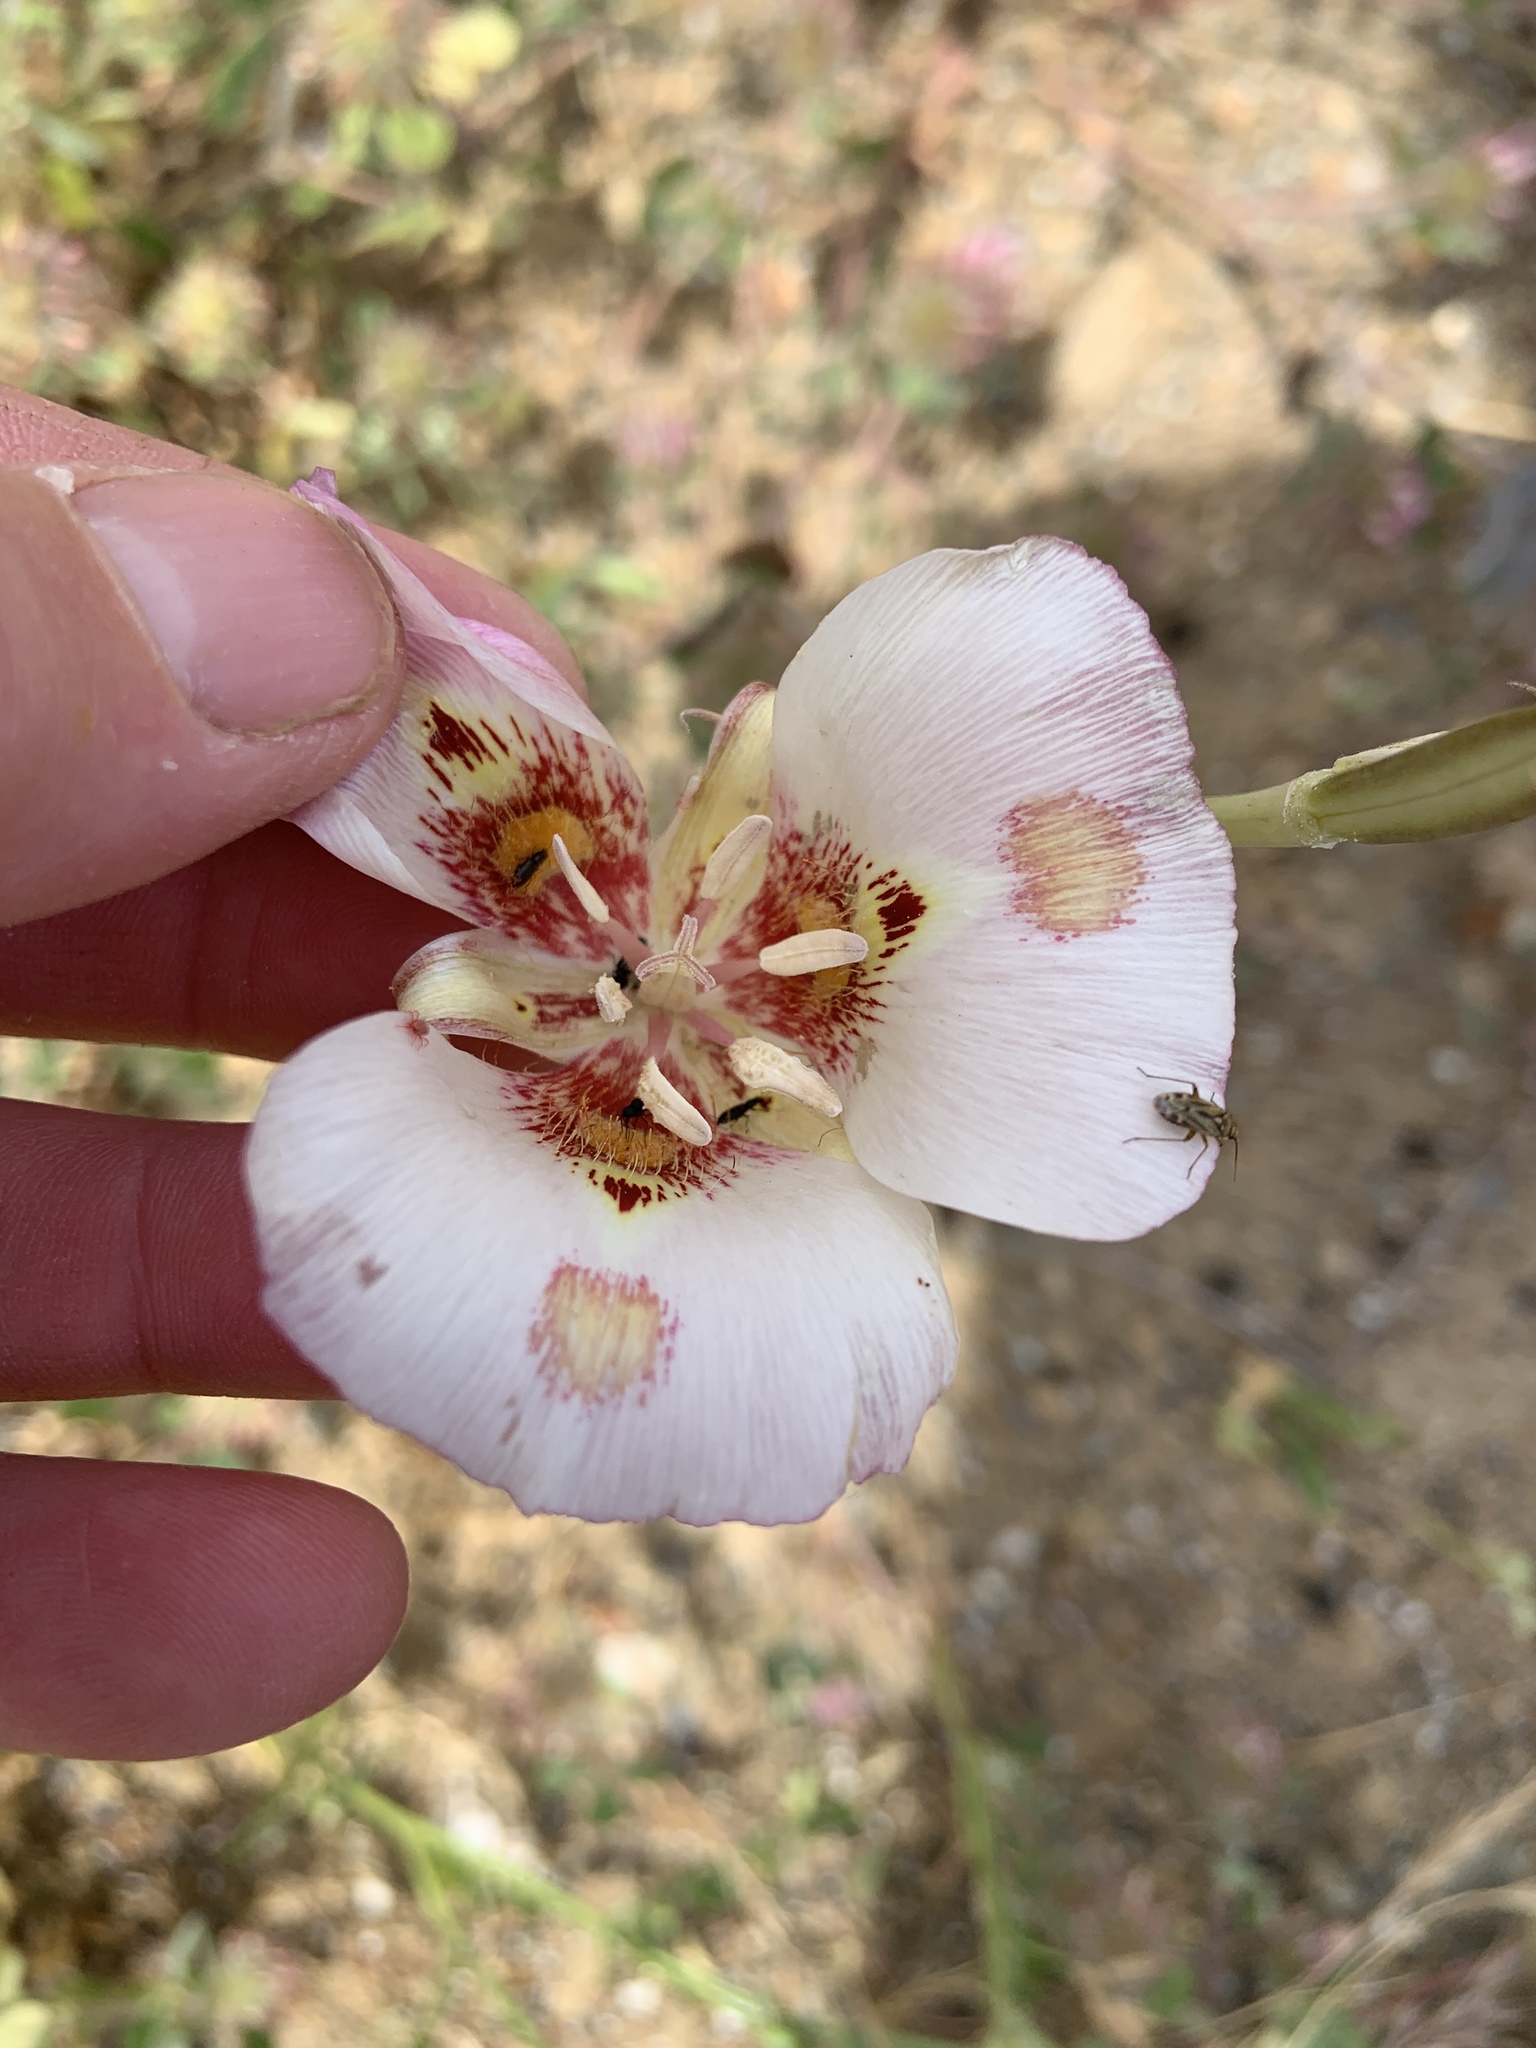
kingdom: Plantae
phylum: Tracheophyta
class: Liliopsida
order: Liliales
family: Liliaceae
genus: Calochortus
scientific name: Calochortus venustus
